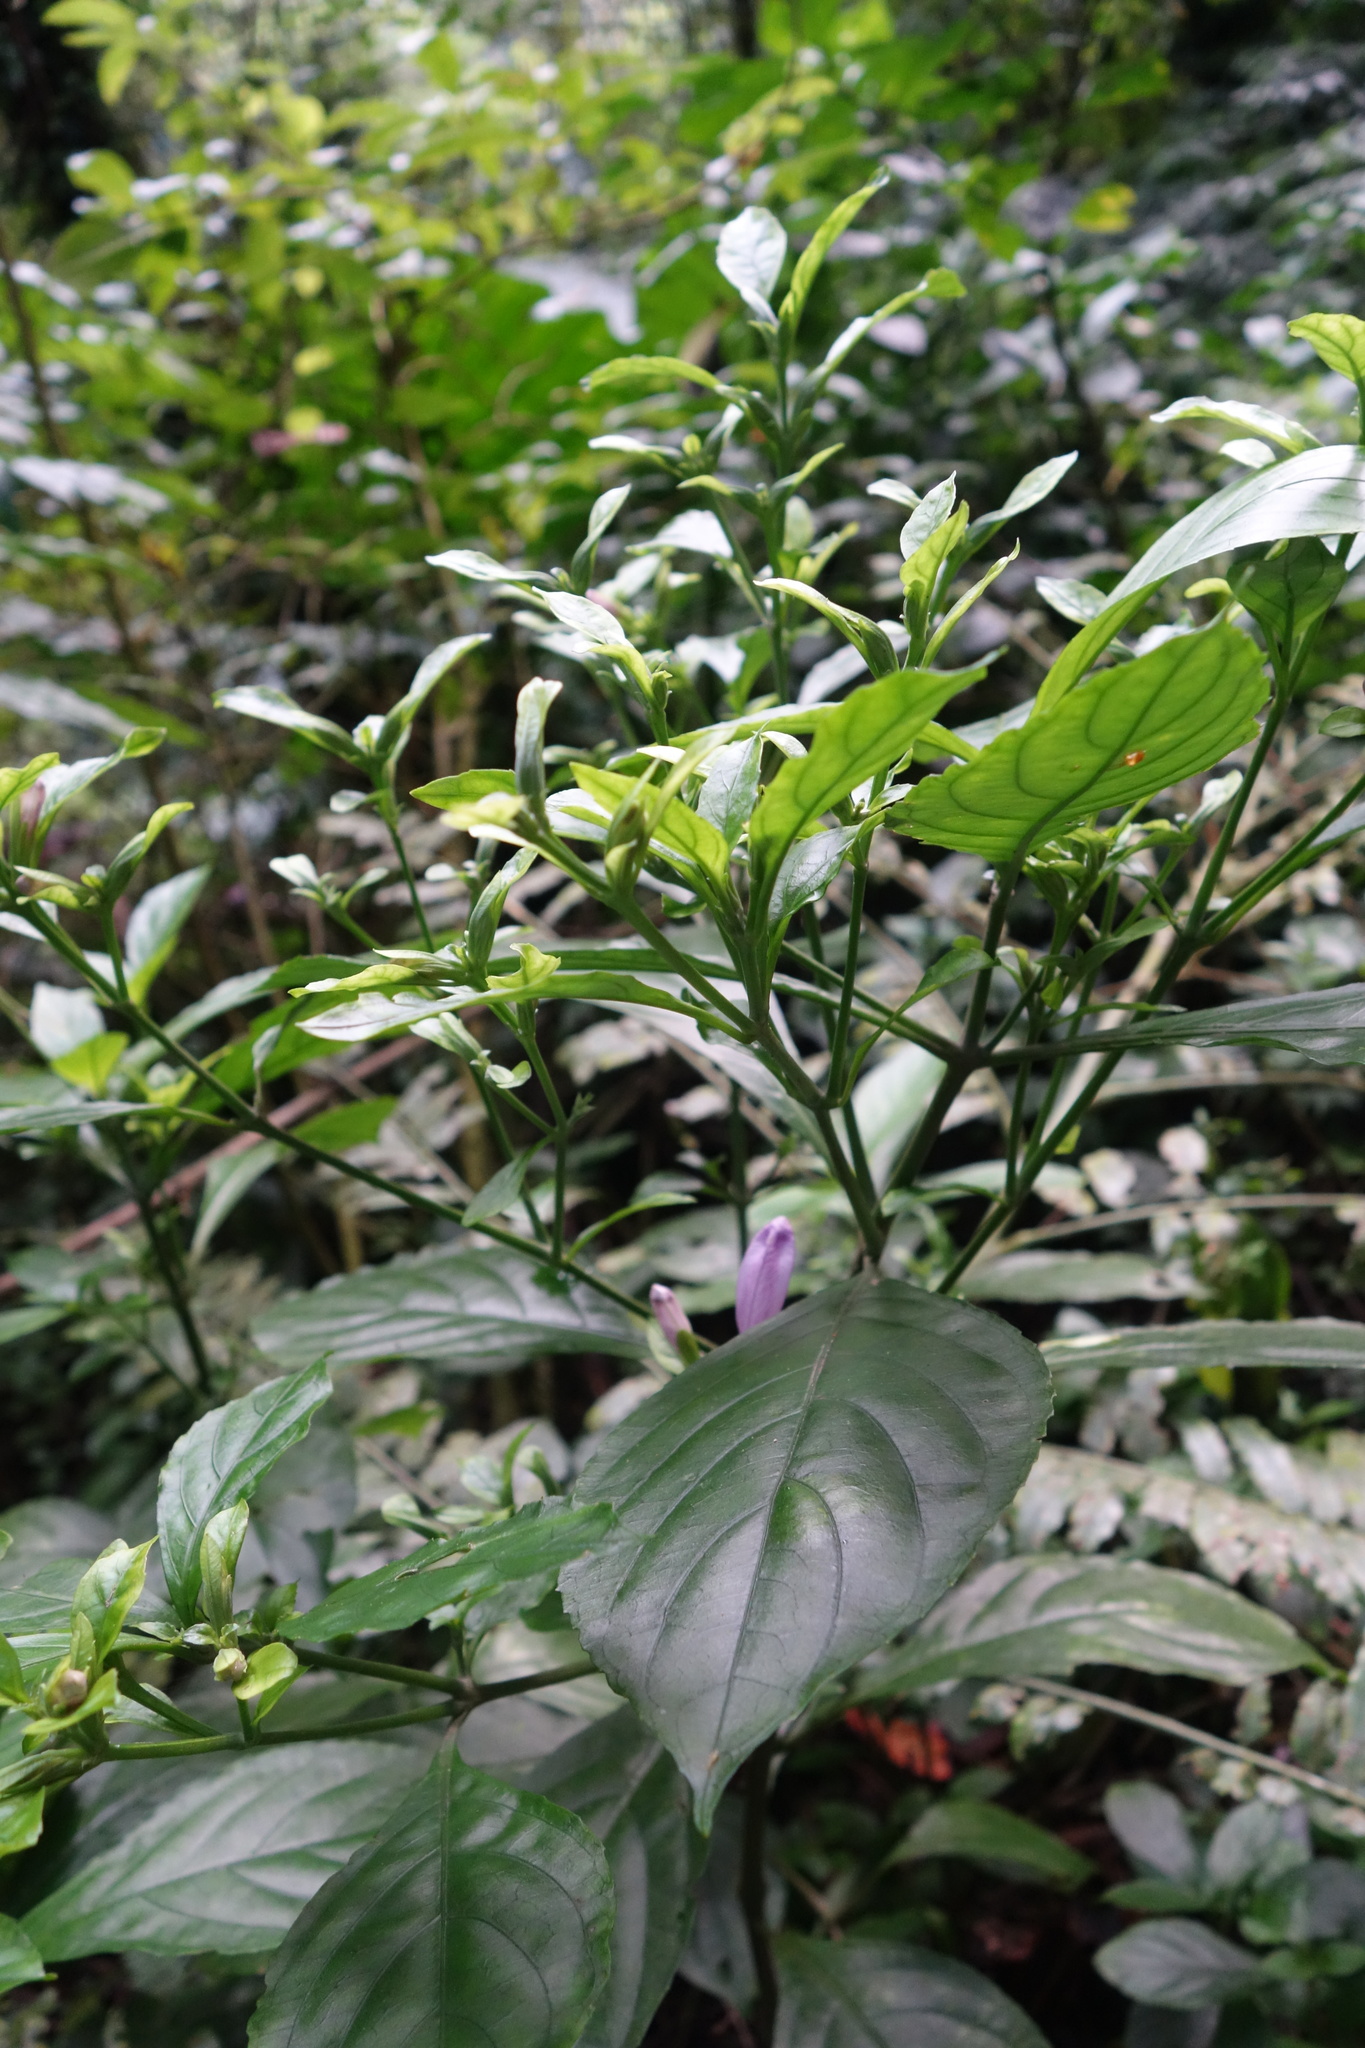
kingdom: Plantae
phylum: Tracheophyta
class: Magnoliopsida
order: Lamiales
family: Acanthaceae
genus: Strobilanthes
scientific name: Strobilanthes cusia
